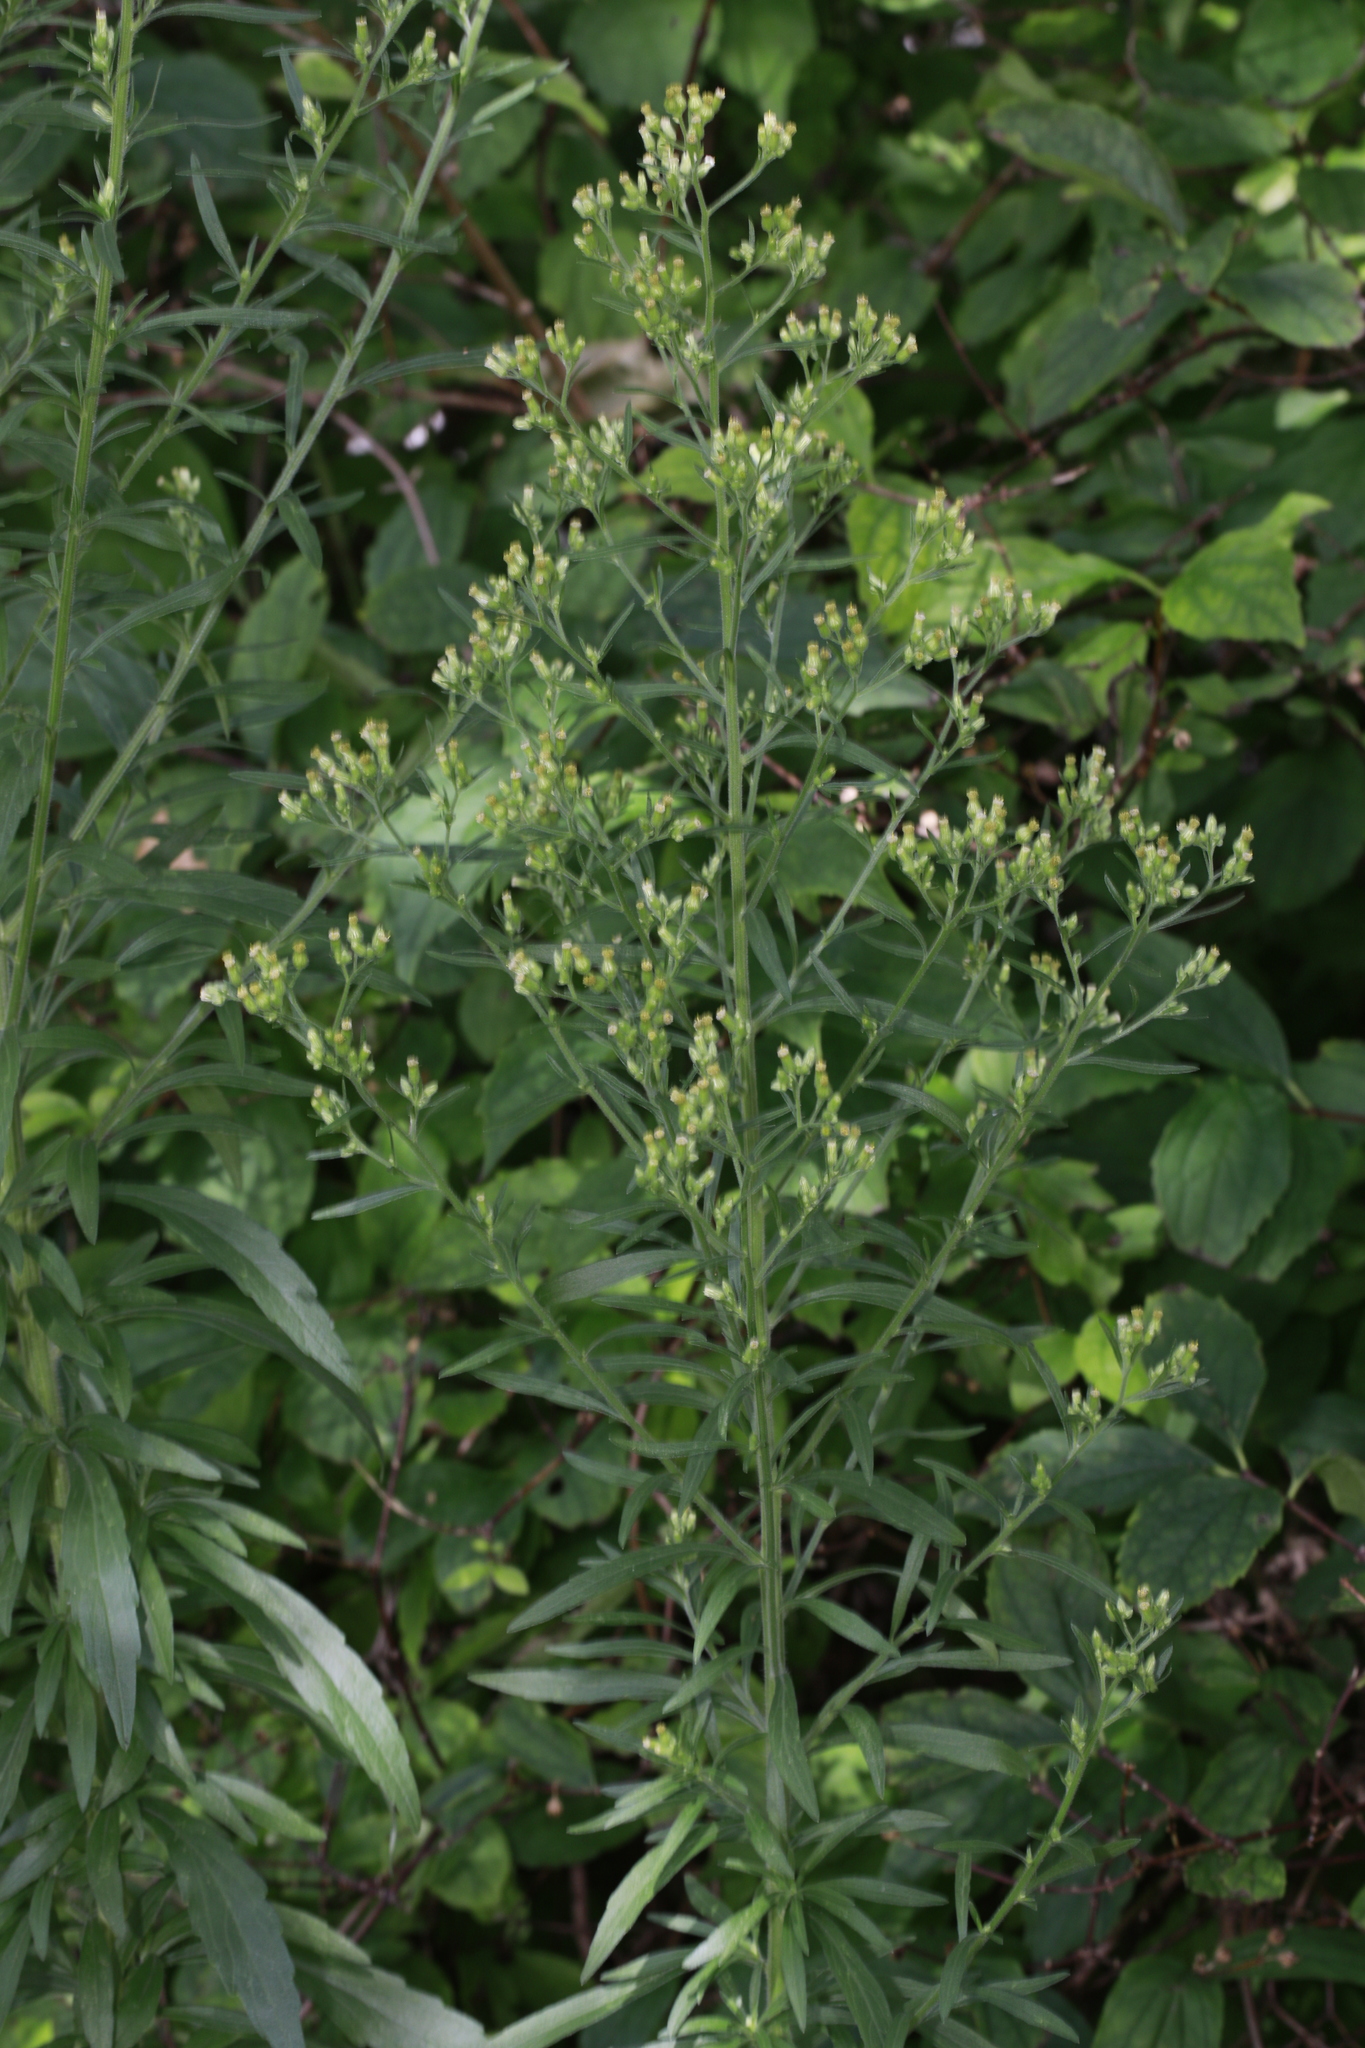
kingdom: Plantae
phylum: Tracheophyta
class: Magnoliopsida
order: Asterales
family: Asteraceae
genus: Erigeron
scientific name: Erigeron sumatrensis
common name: Daisy
